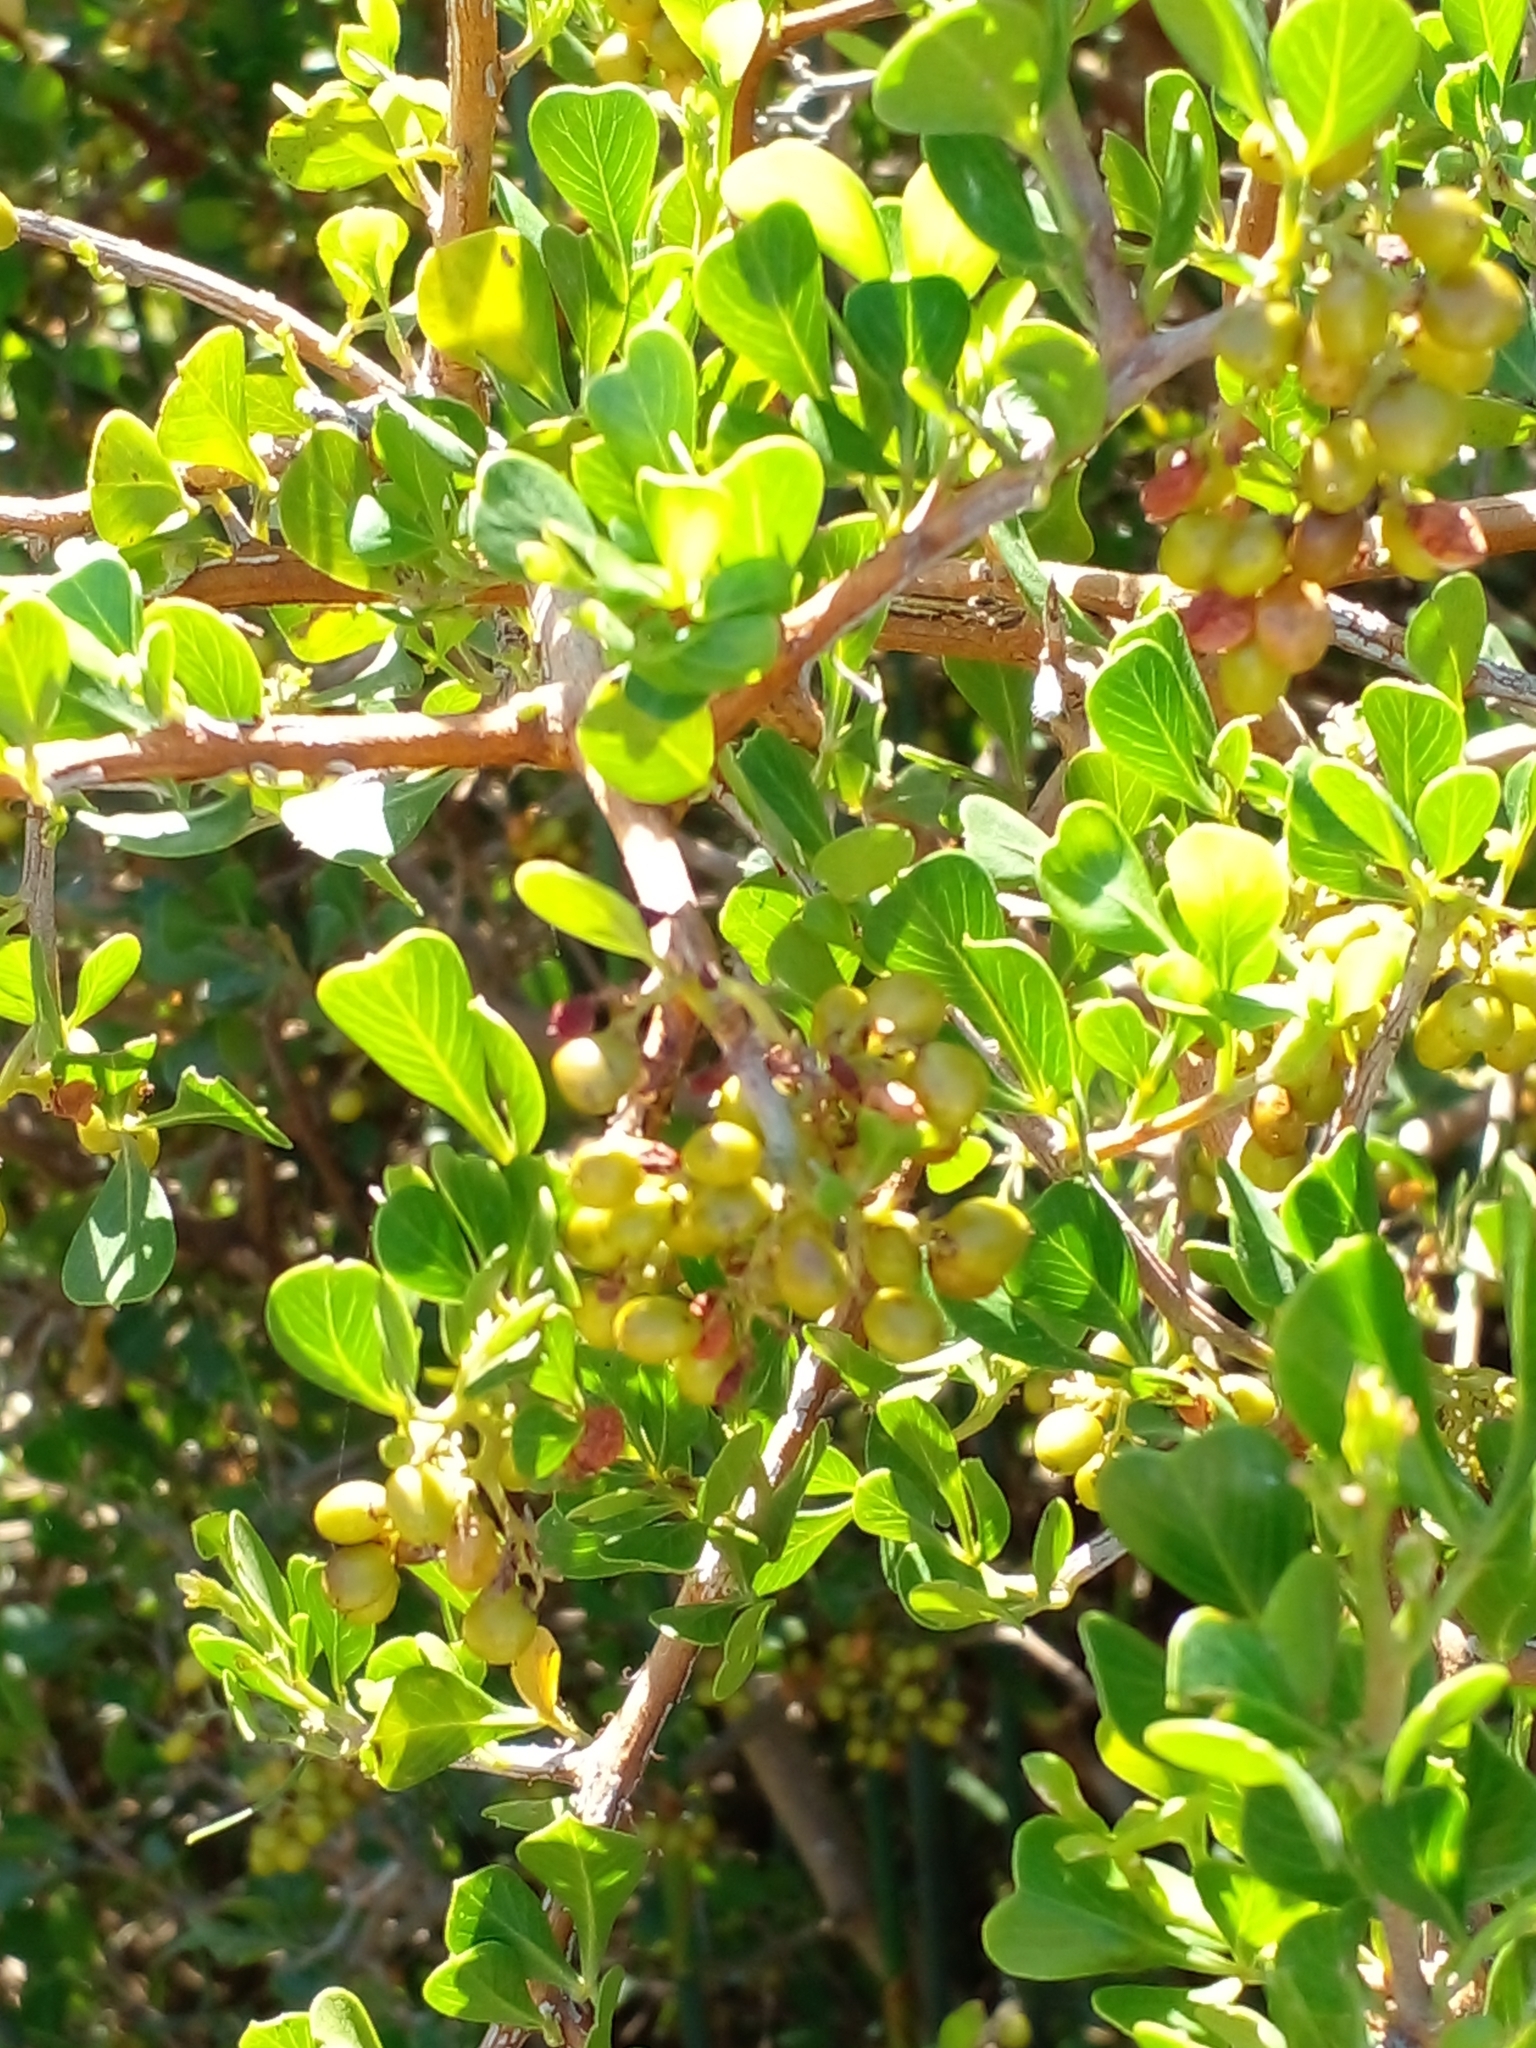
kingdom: Plantae
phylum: Tracheophyta
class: Magnoliopsida
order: Sapindales
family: Anacardiaceae
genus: Searsia
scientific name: Searsia glauca
